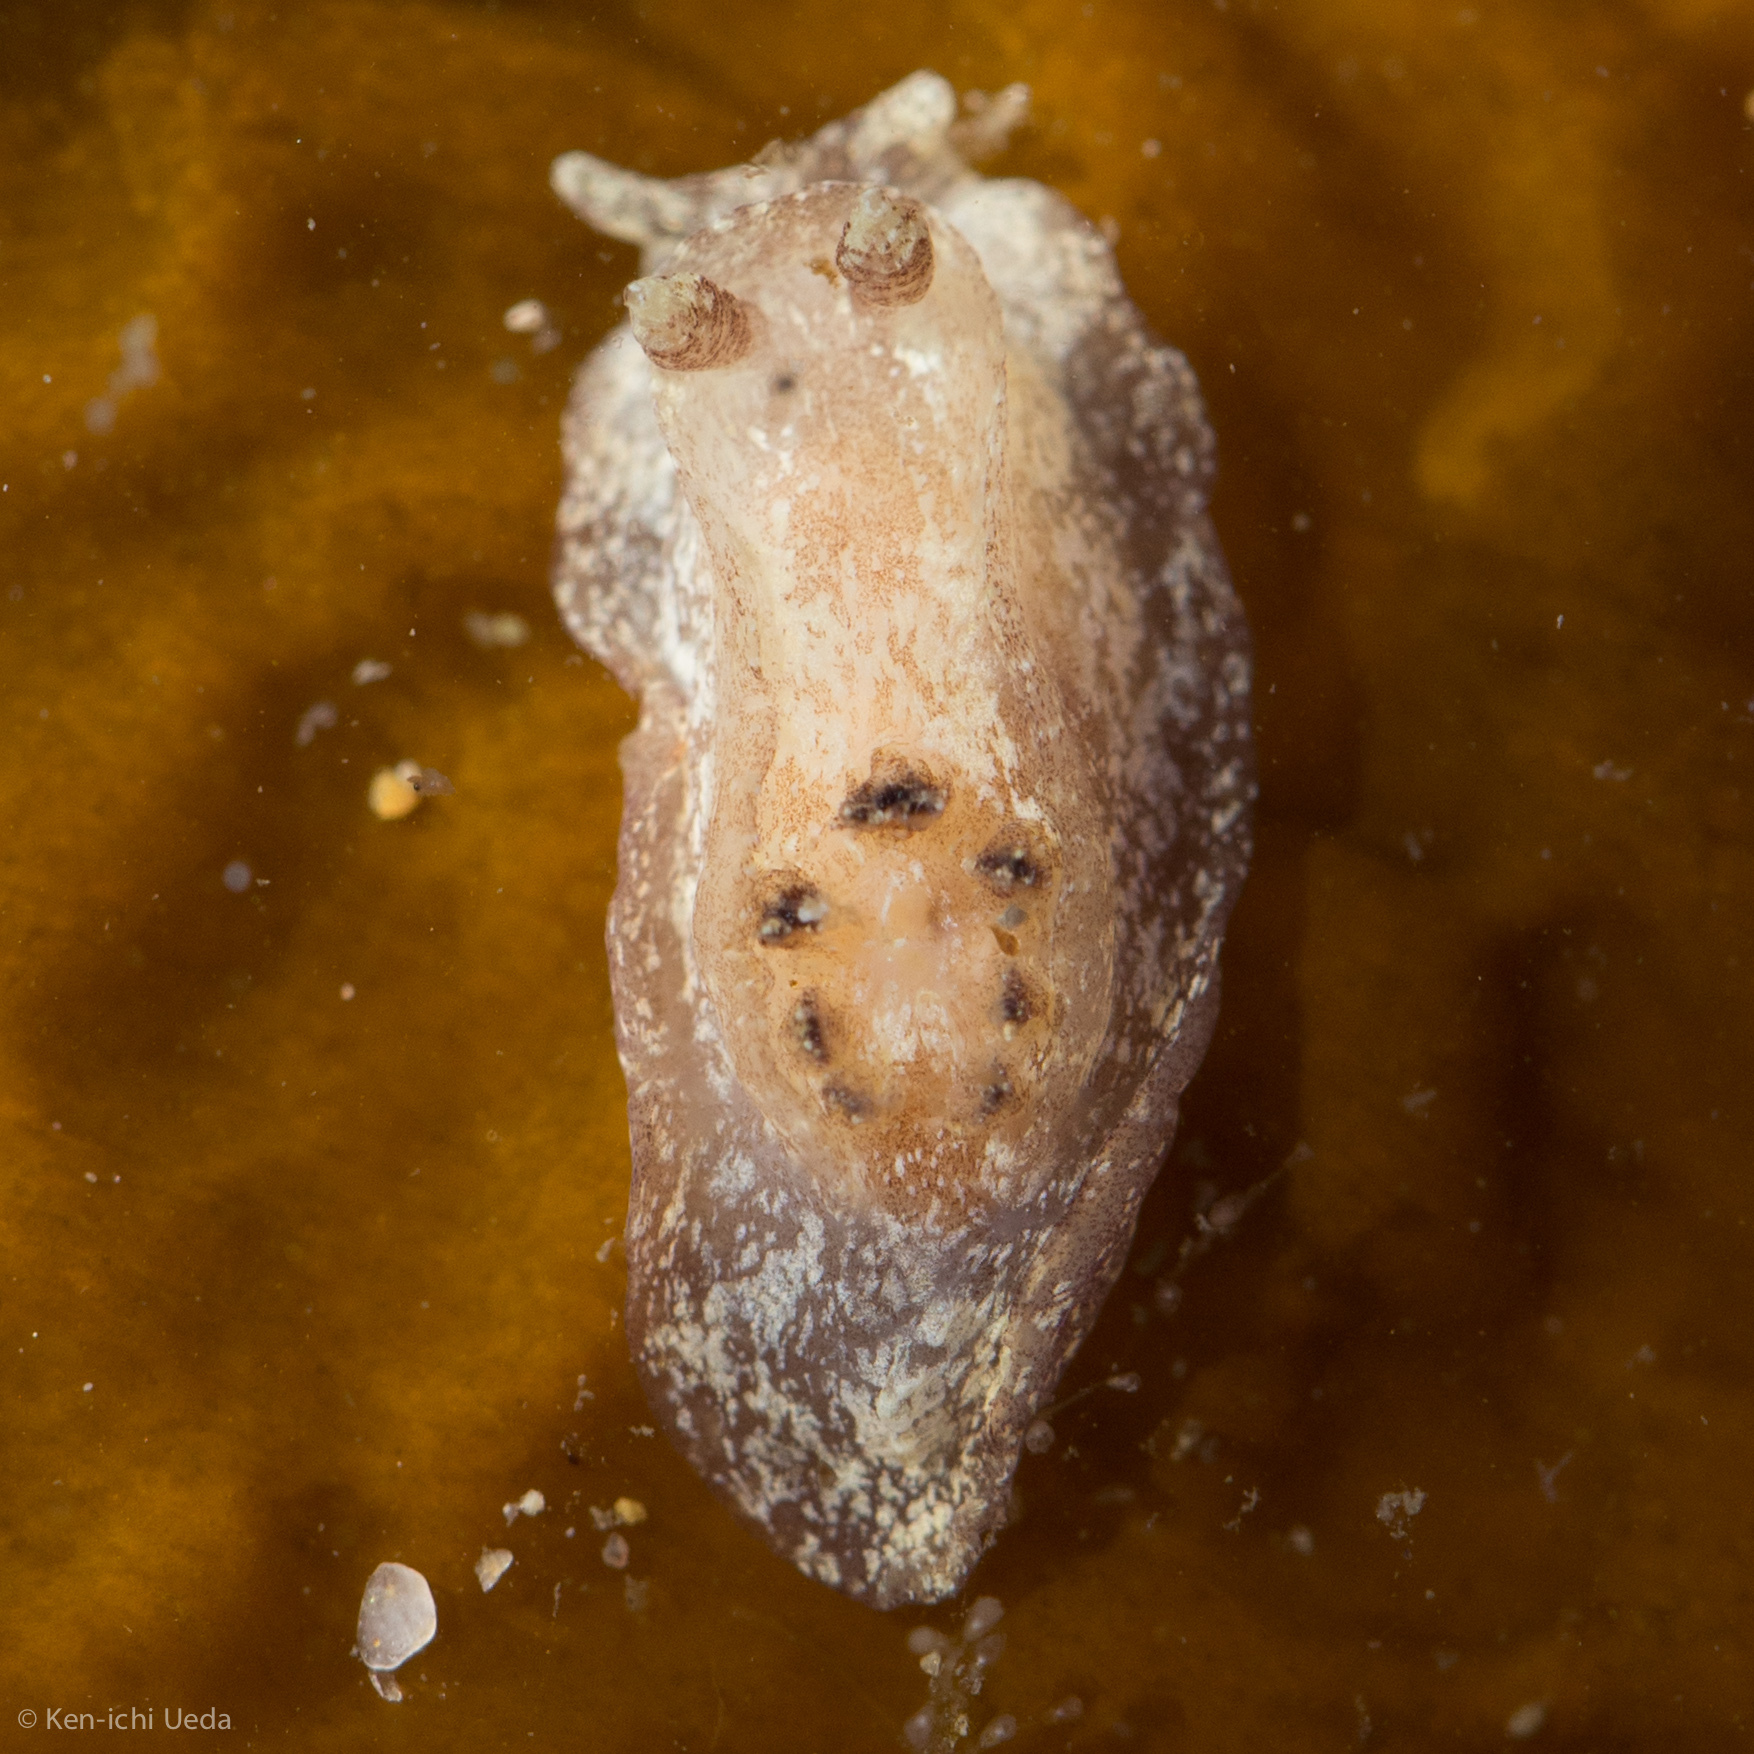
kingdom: Animalia
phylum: Mollusca
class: Gastropoda
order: Nudibranchia
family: Goniodorididae
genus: Pelagella
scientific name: Pelagella
